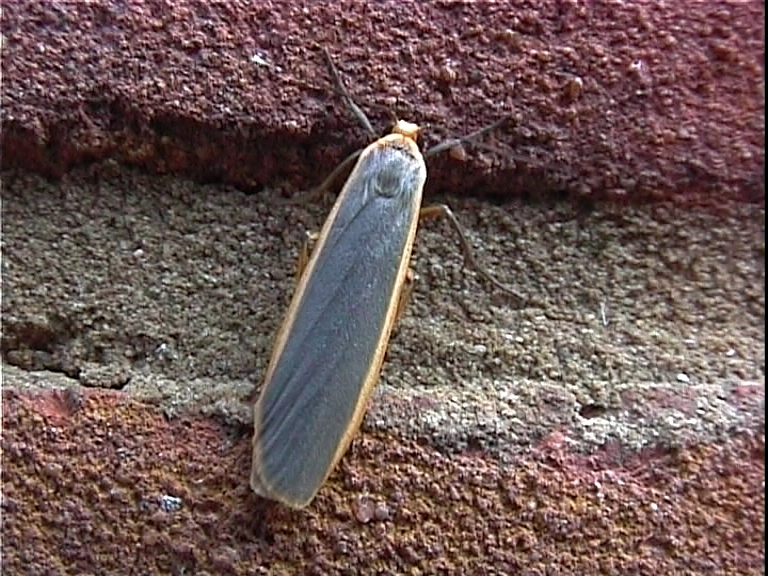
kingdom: Animalia
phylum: Arthropoda
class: Insecta
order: Lepidoptera
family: Erebidae
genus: Nyea
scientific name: Nyea lurideola
